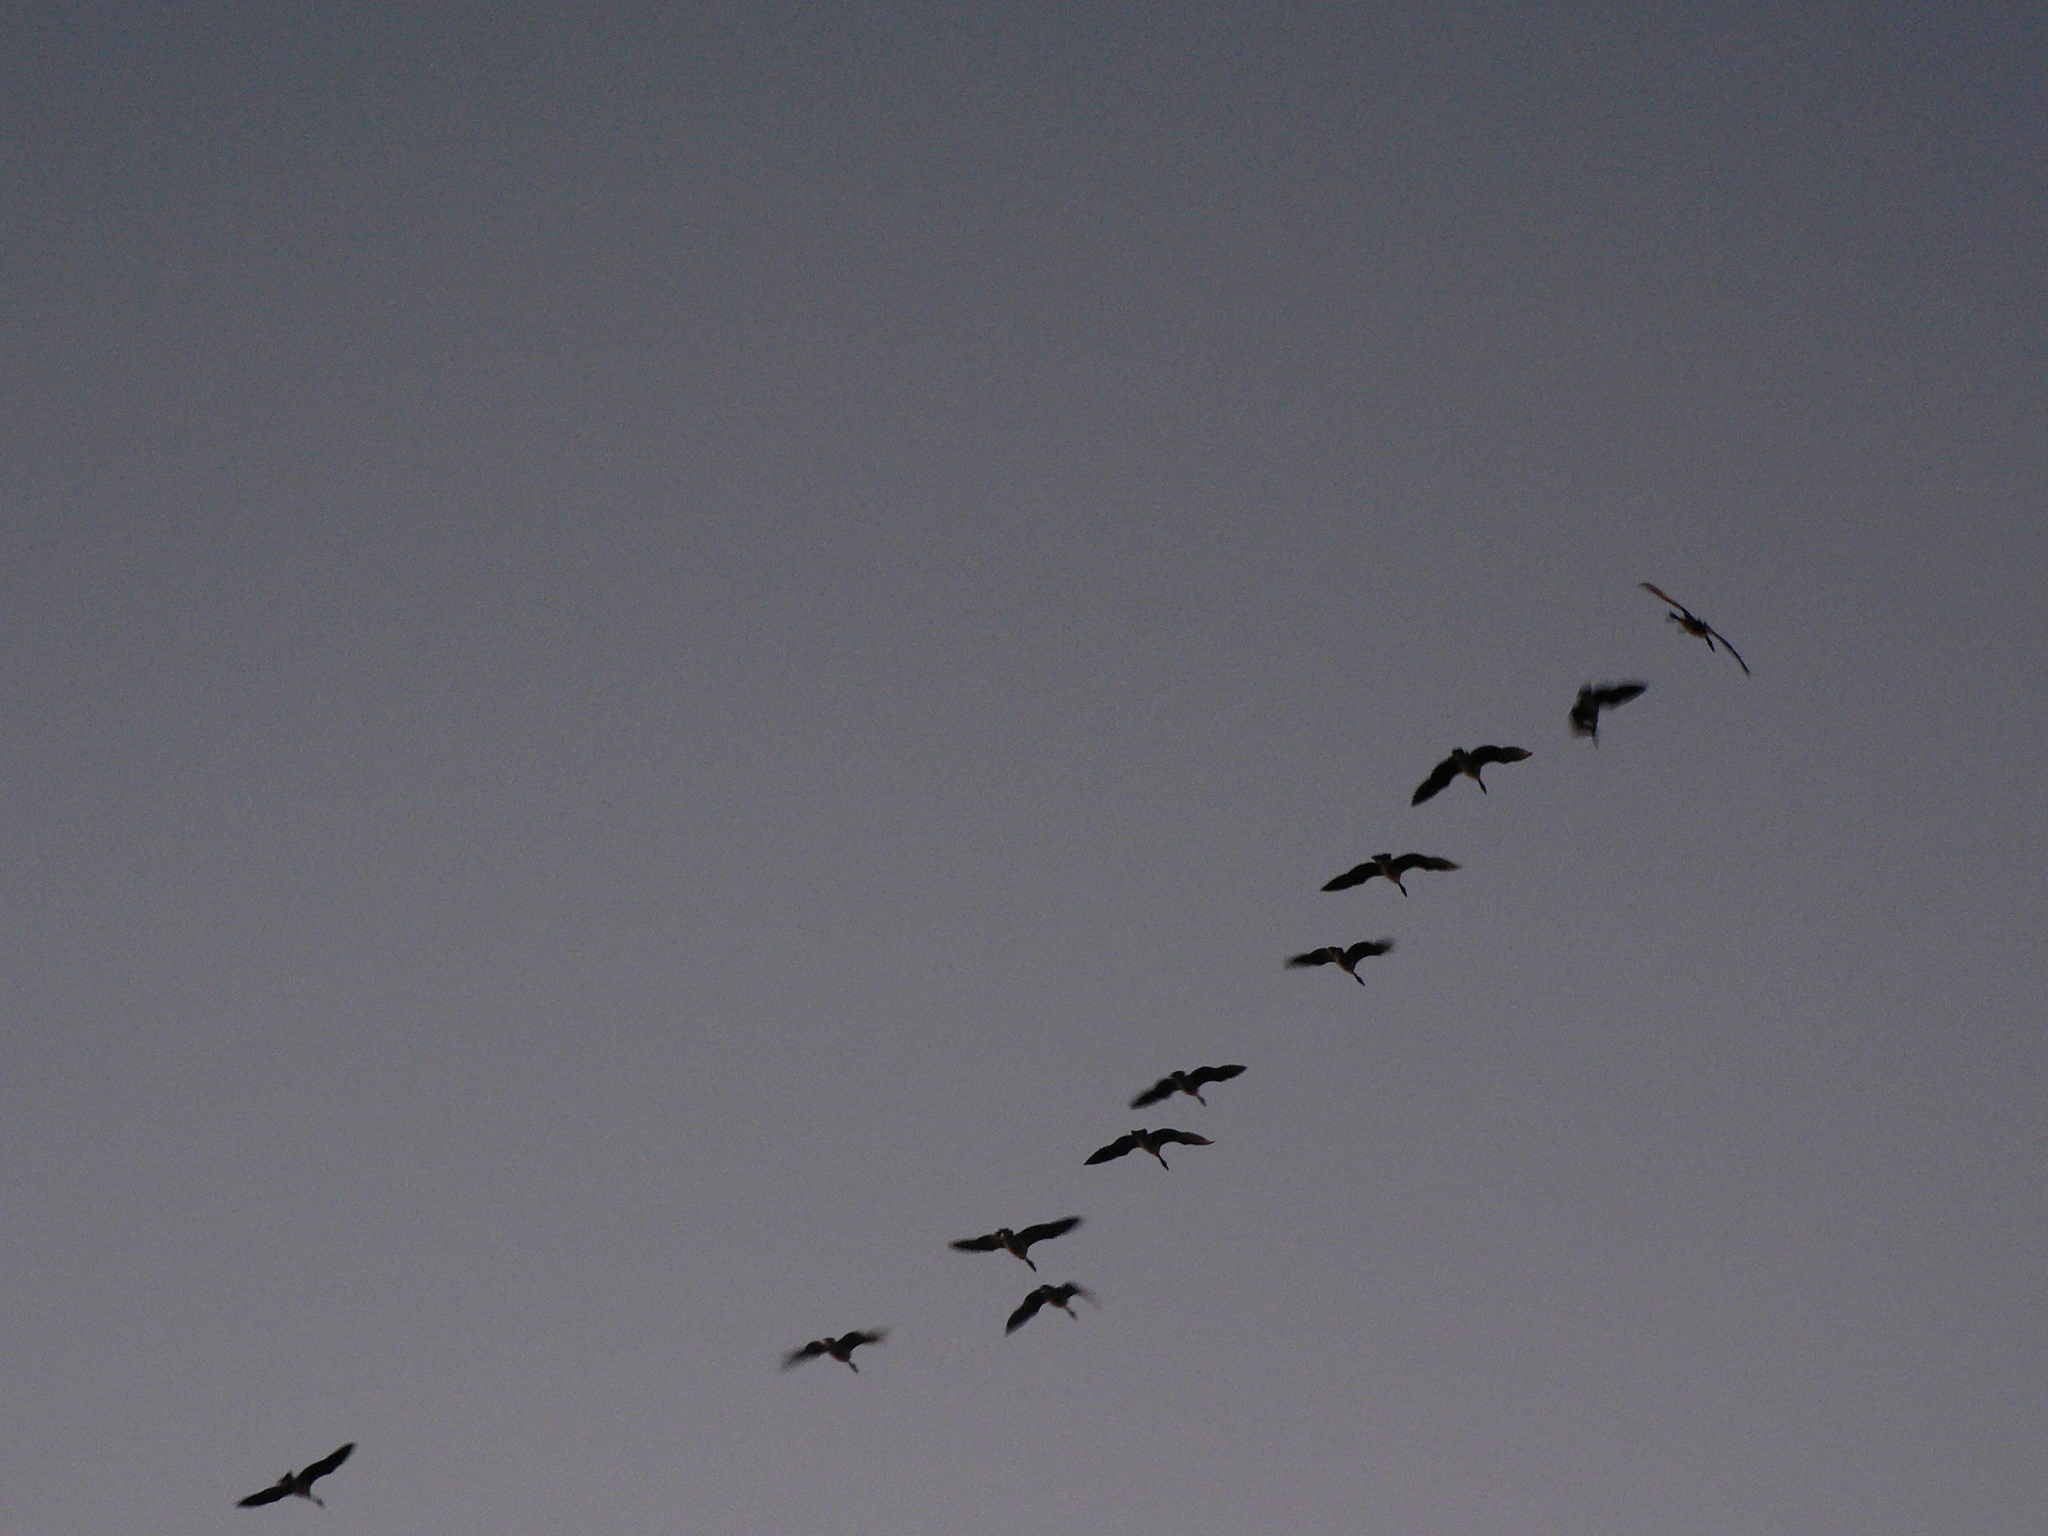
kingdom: Animalia
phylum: Chordata
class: Aves
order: Anseriformes
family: Anatidae
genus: Branta
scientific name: Branta canadensis
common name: Canada goose
